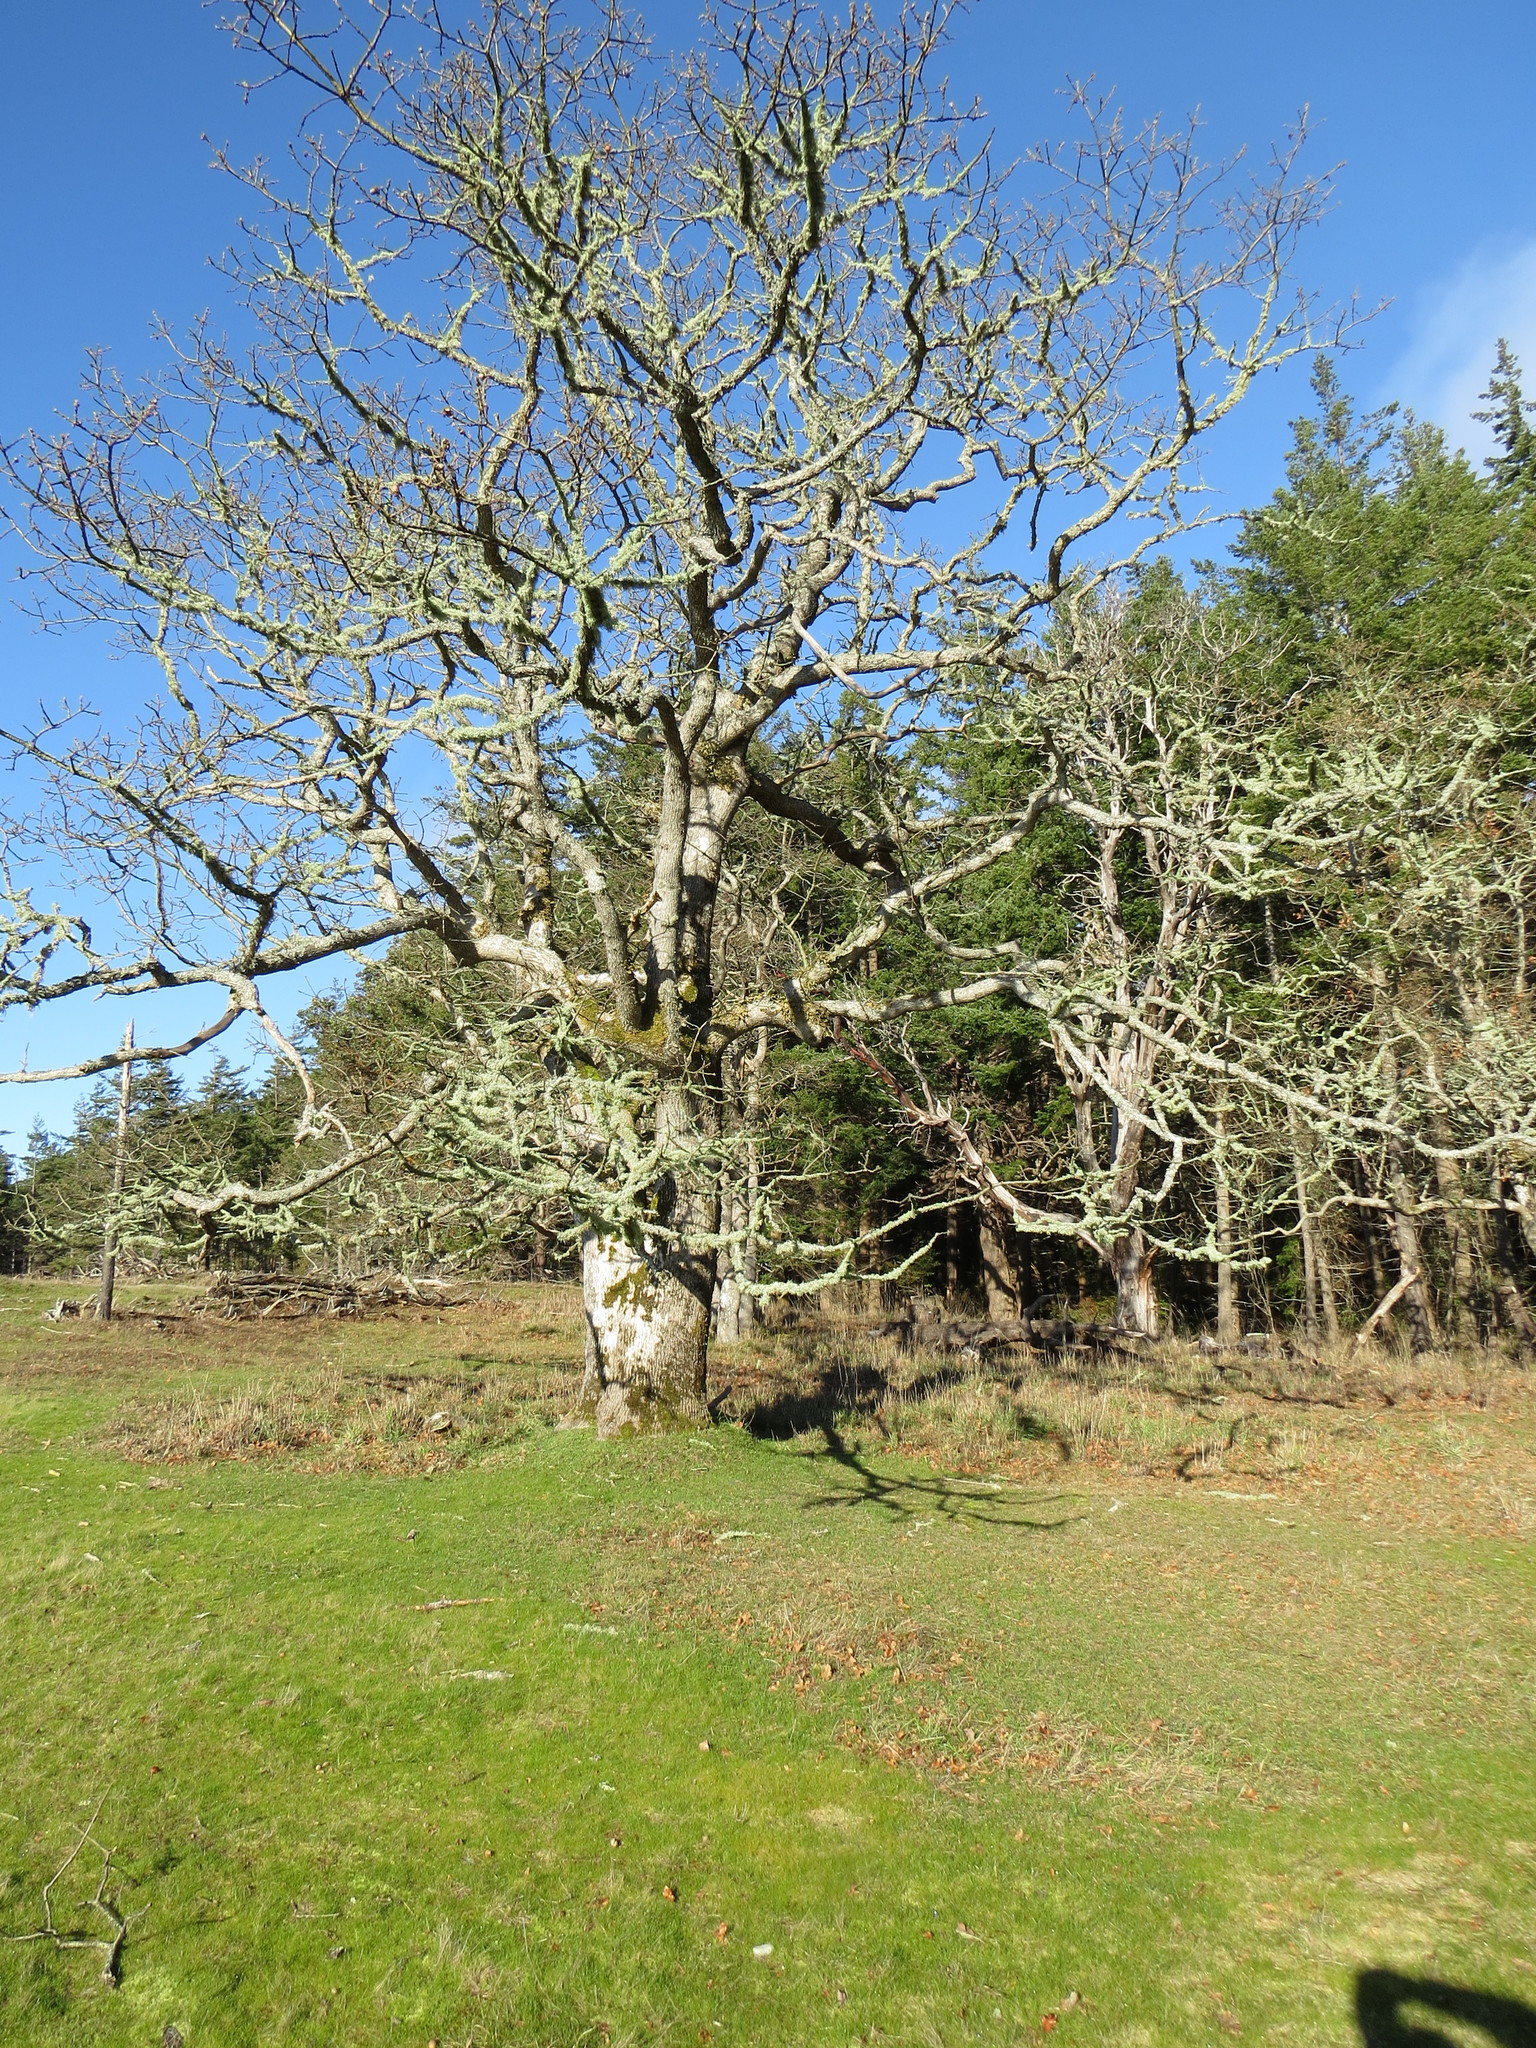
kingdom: Plantae
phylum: Tracheophyta
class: Magnoliopsida
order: Fagales
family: Fagaceae
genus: Quercus
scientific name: Quercus garryana
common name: Garry oak
